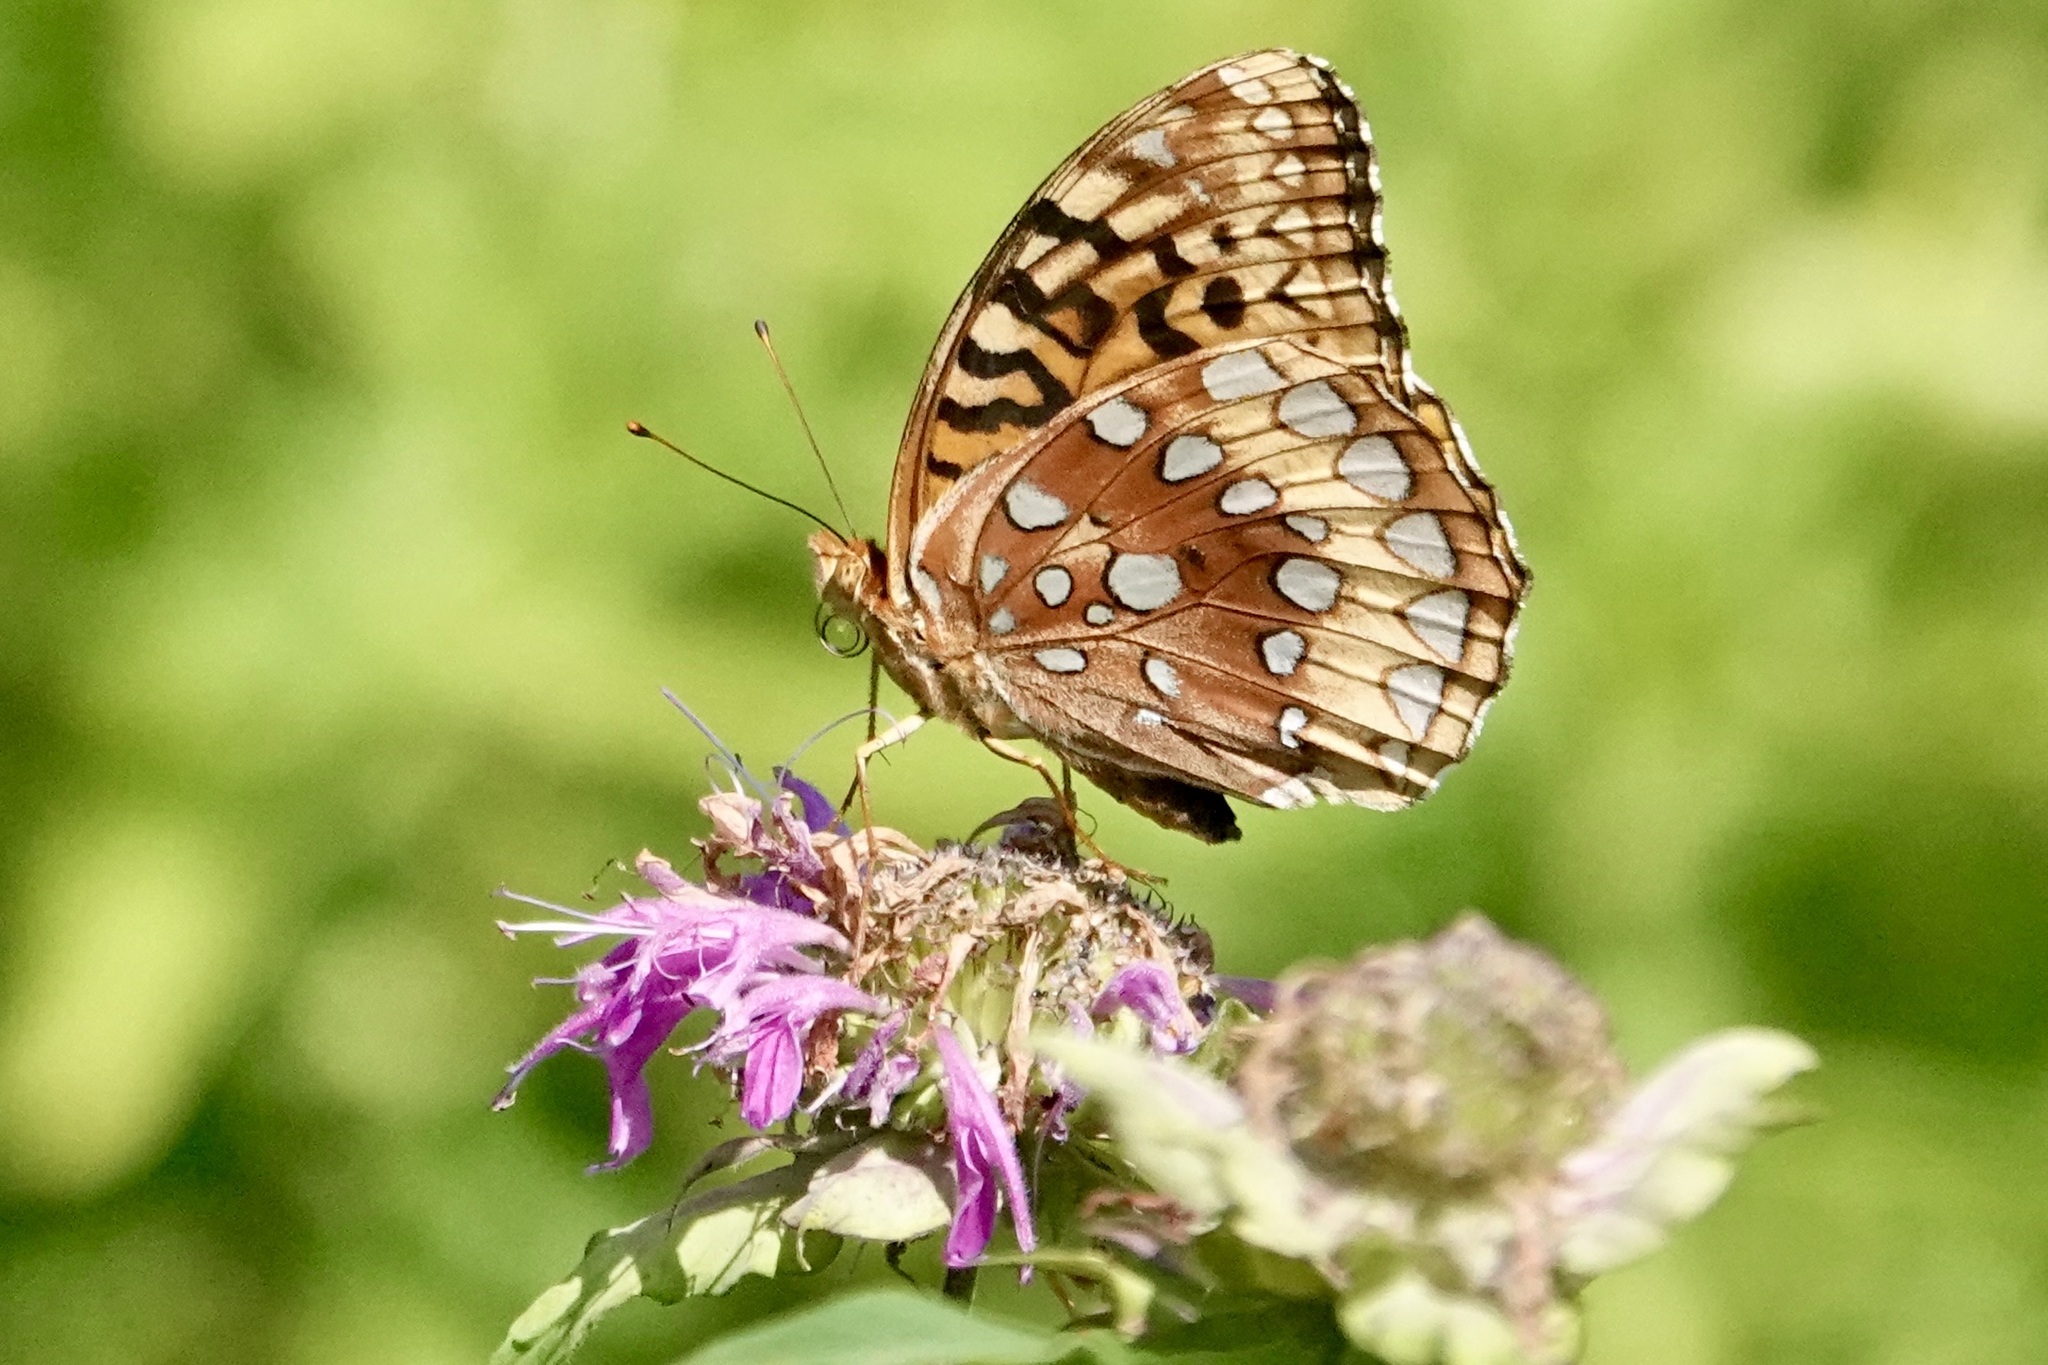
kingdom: Animalia
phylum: Arthropoda
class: Insecta
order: Lepidoptera
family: Nymphalidae
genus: Speyeria
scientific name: Speyeria cybele
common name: Great spangled fritillary
